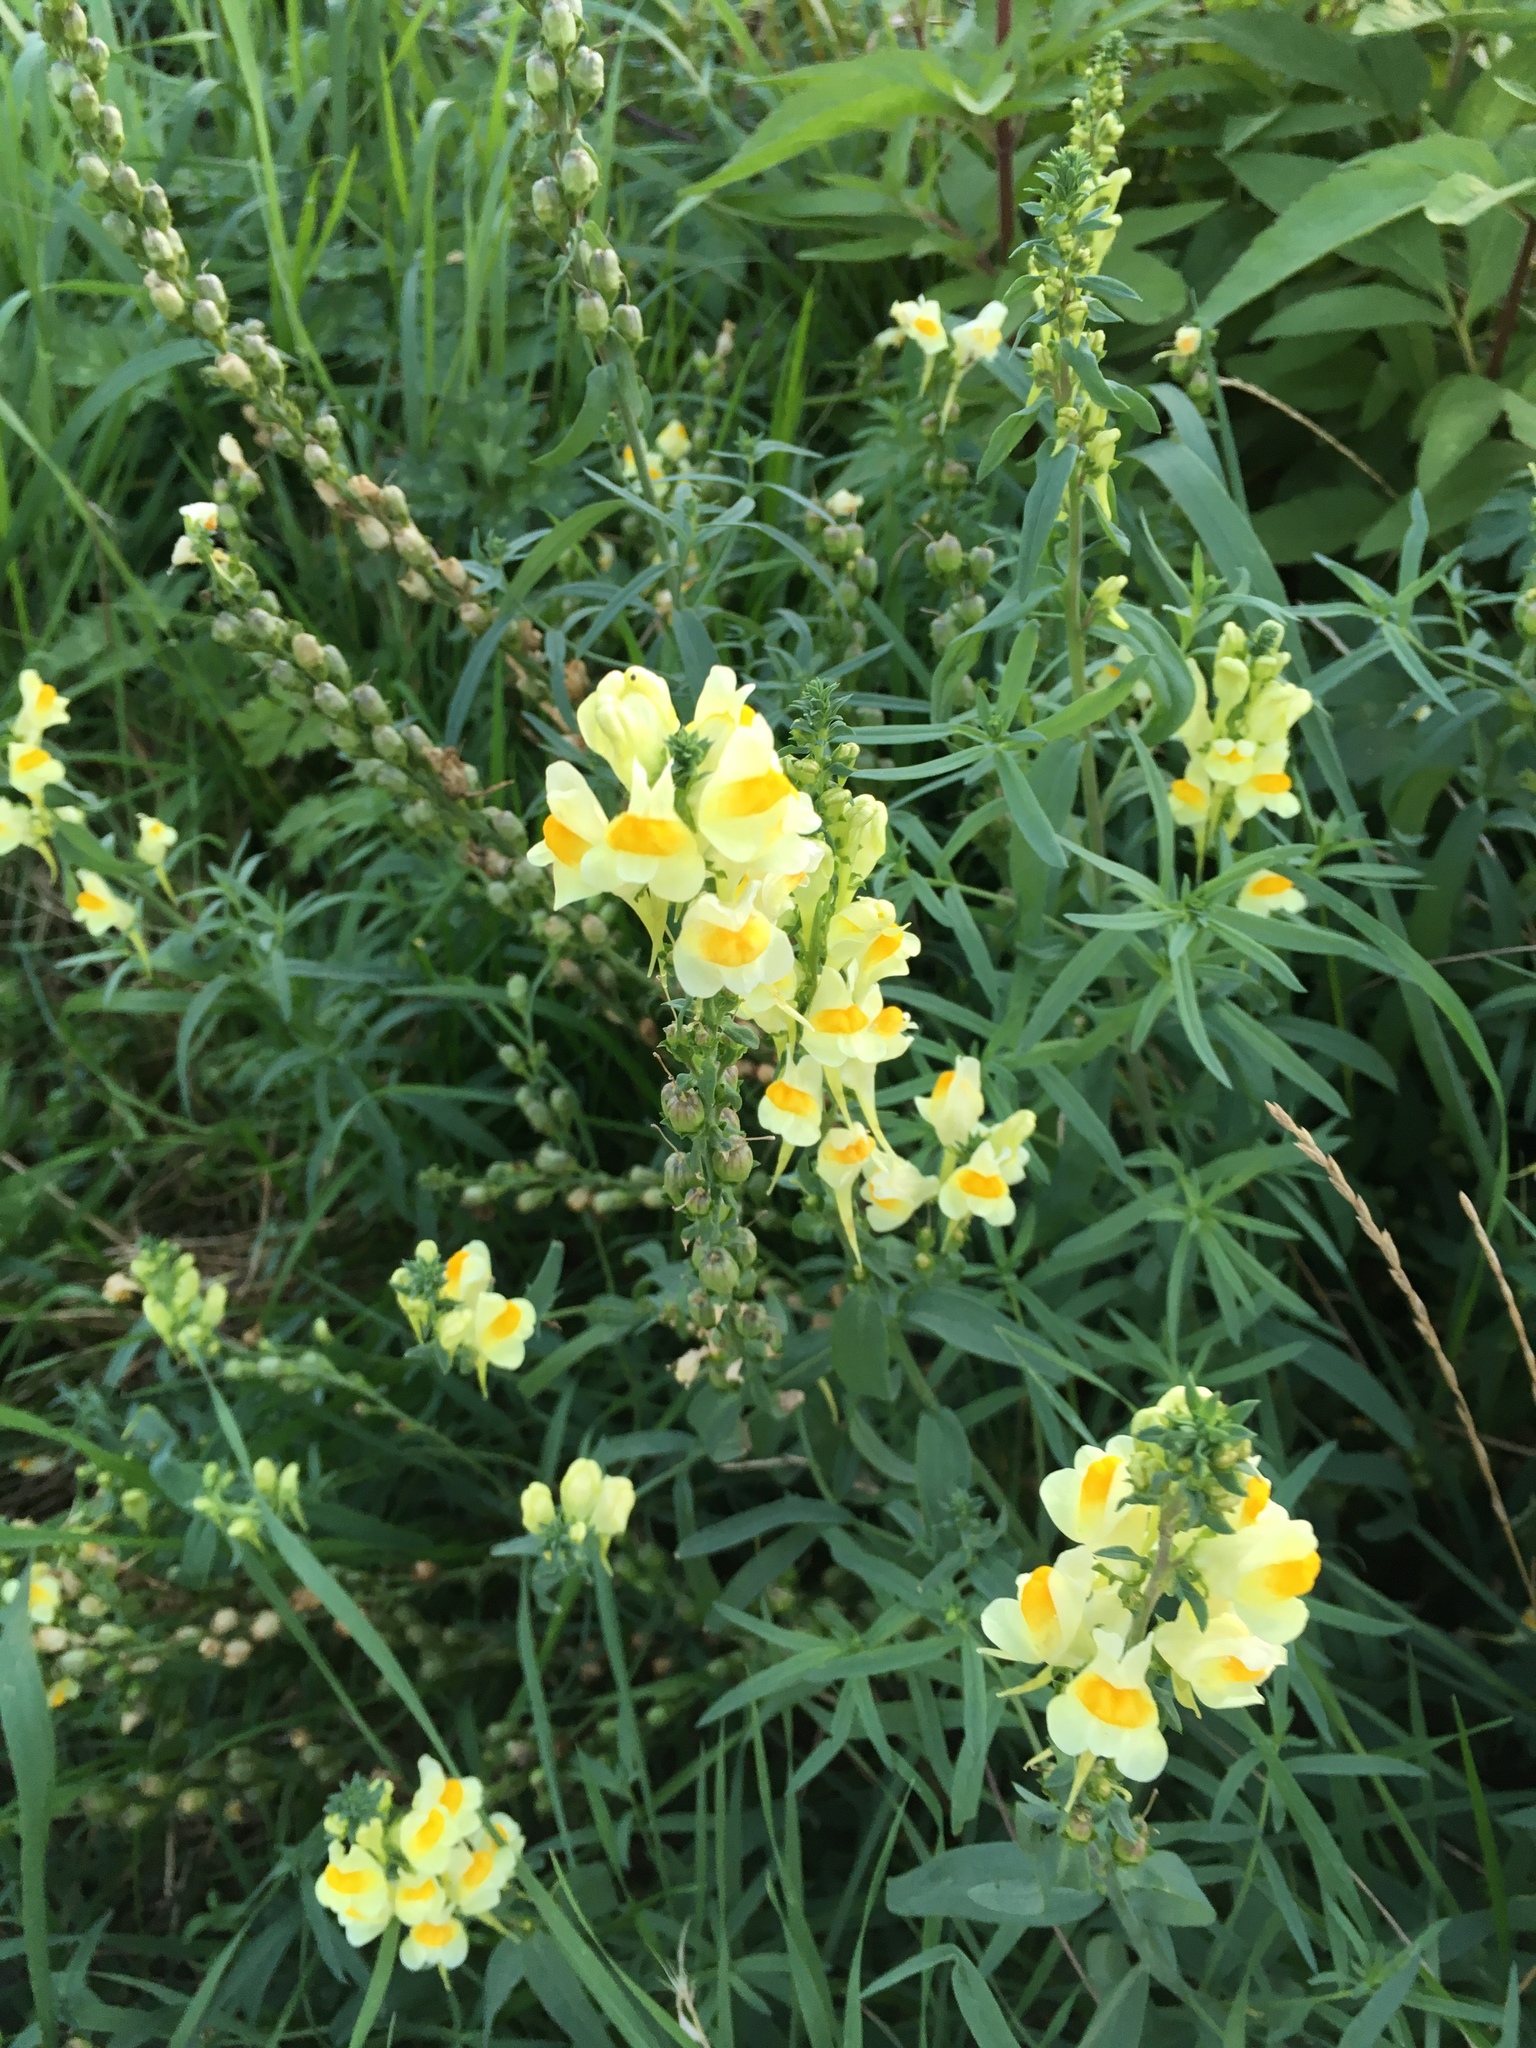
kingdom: Plantae
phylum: Tracheophyta
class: Magnoliopsida
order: Lamiales
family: Plantaginaceae
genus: Linaria
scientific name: Linaria vulgaris
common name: Butter and eggs
